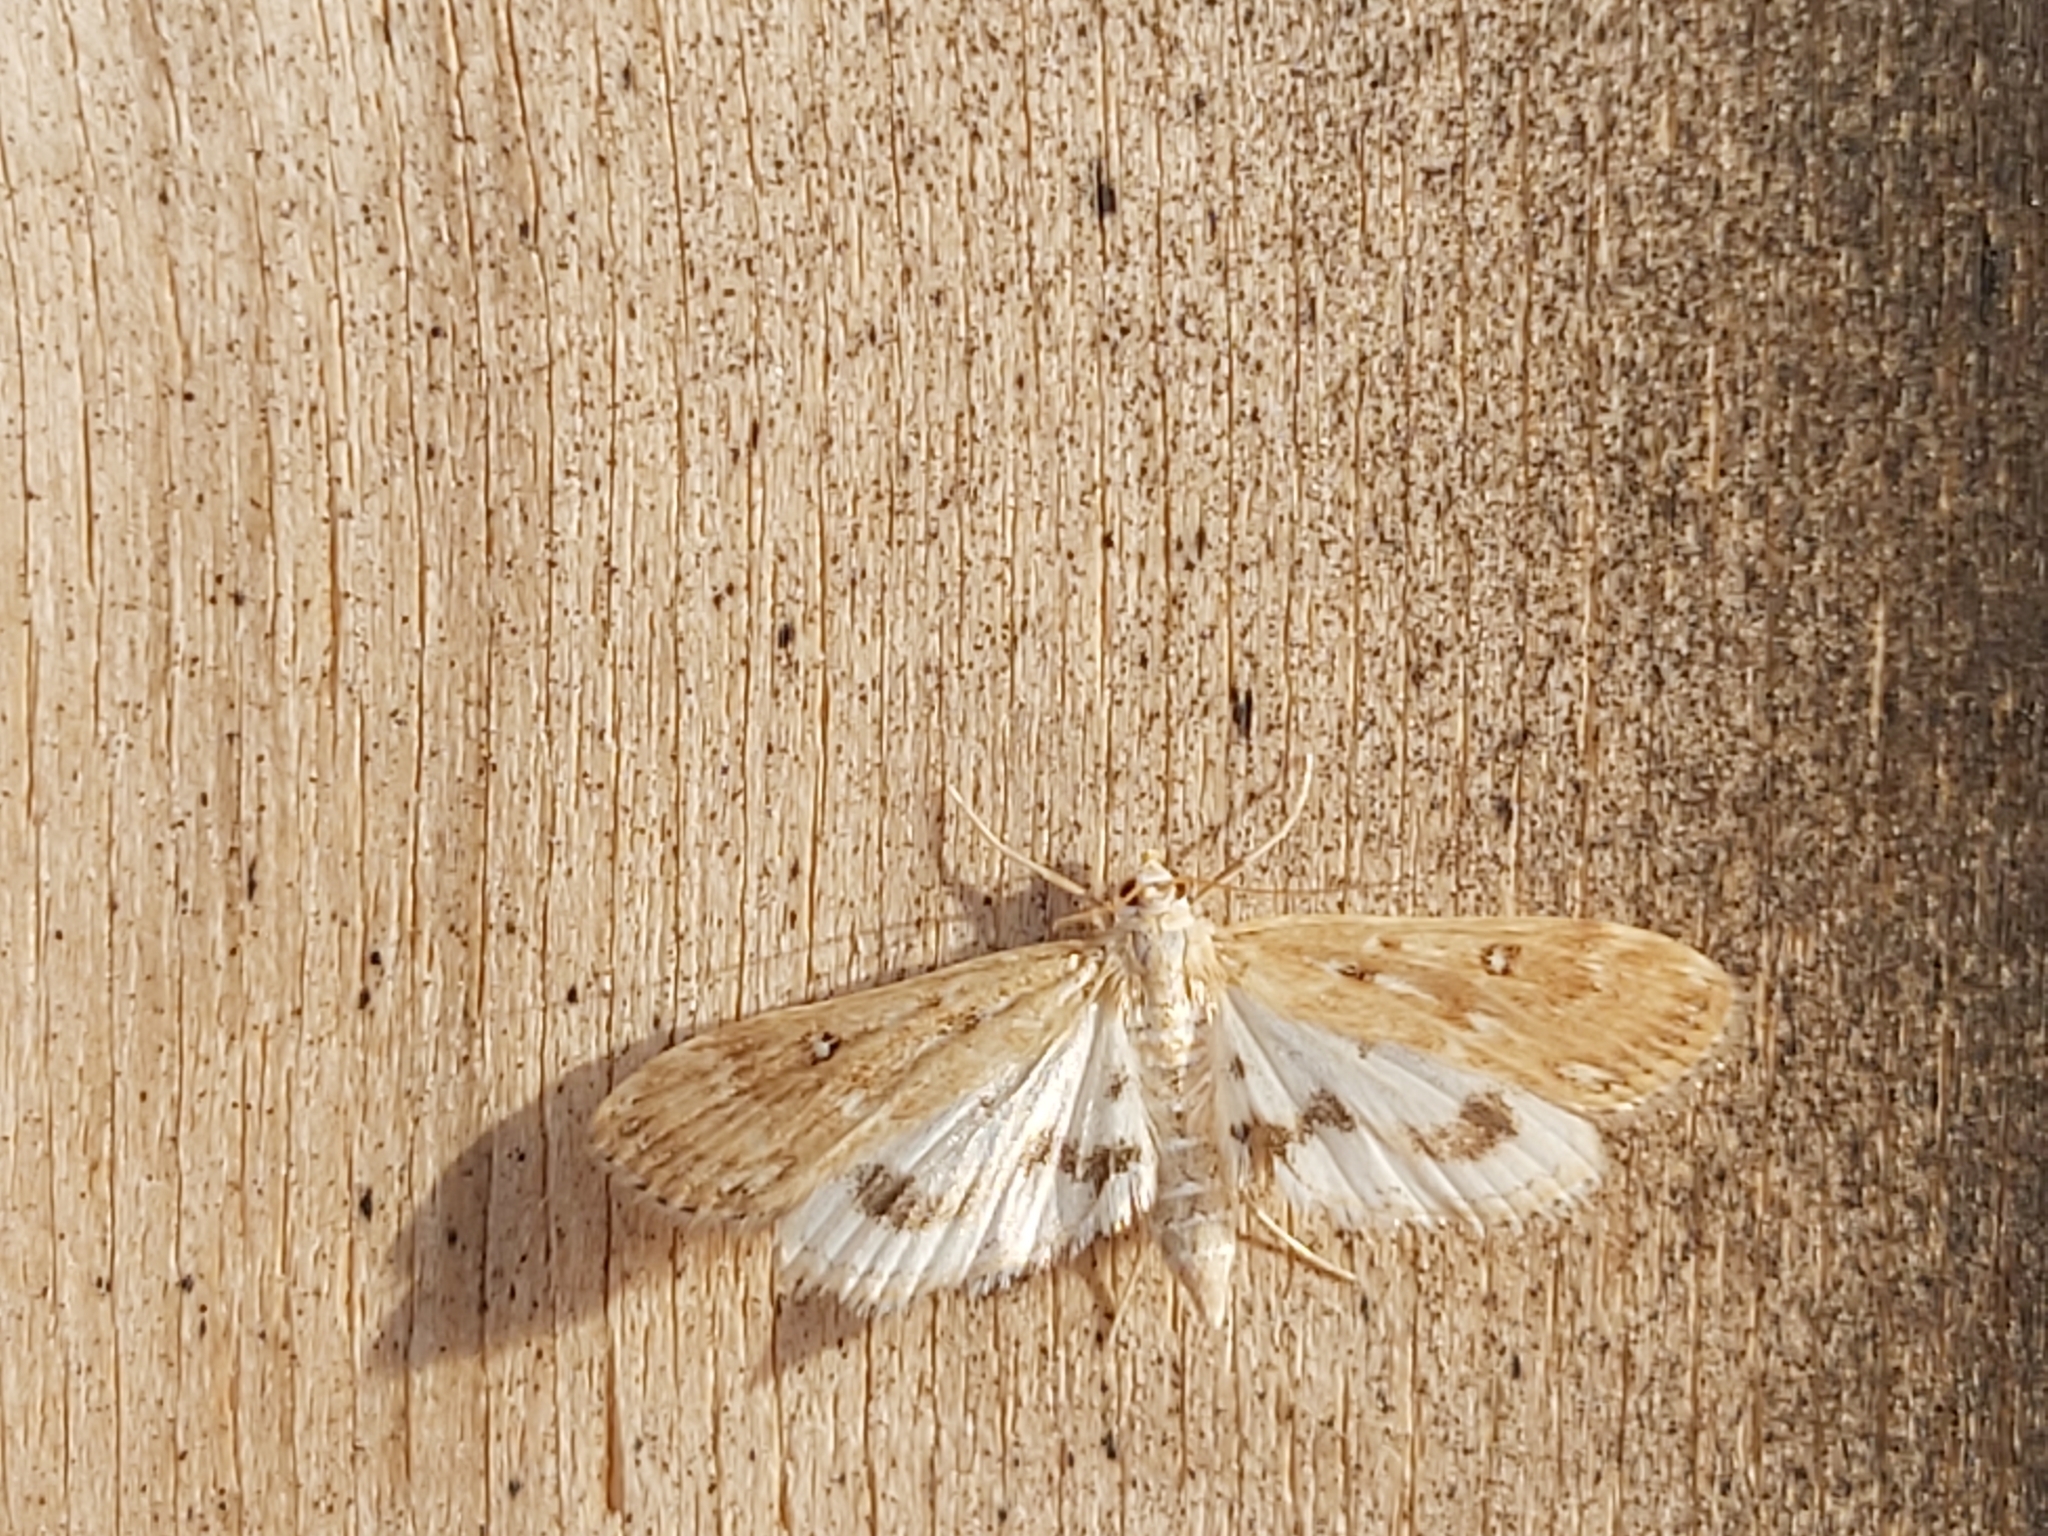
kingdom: Animalia
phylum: Arthropoda
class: Insecta
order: Lepidoptera
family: Crambidae
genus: Parapoynx
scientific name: Parapoynx stratiotata
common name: Ringed china-mark
